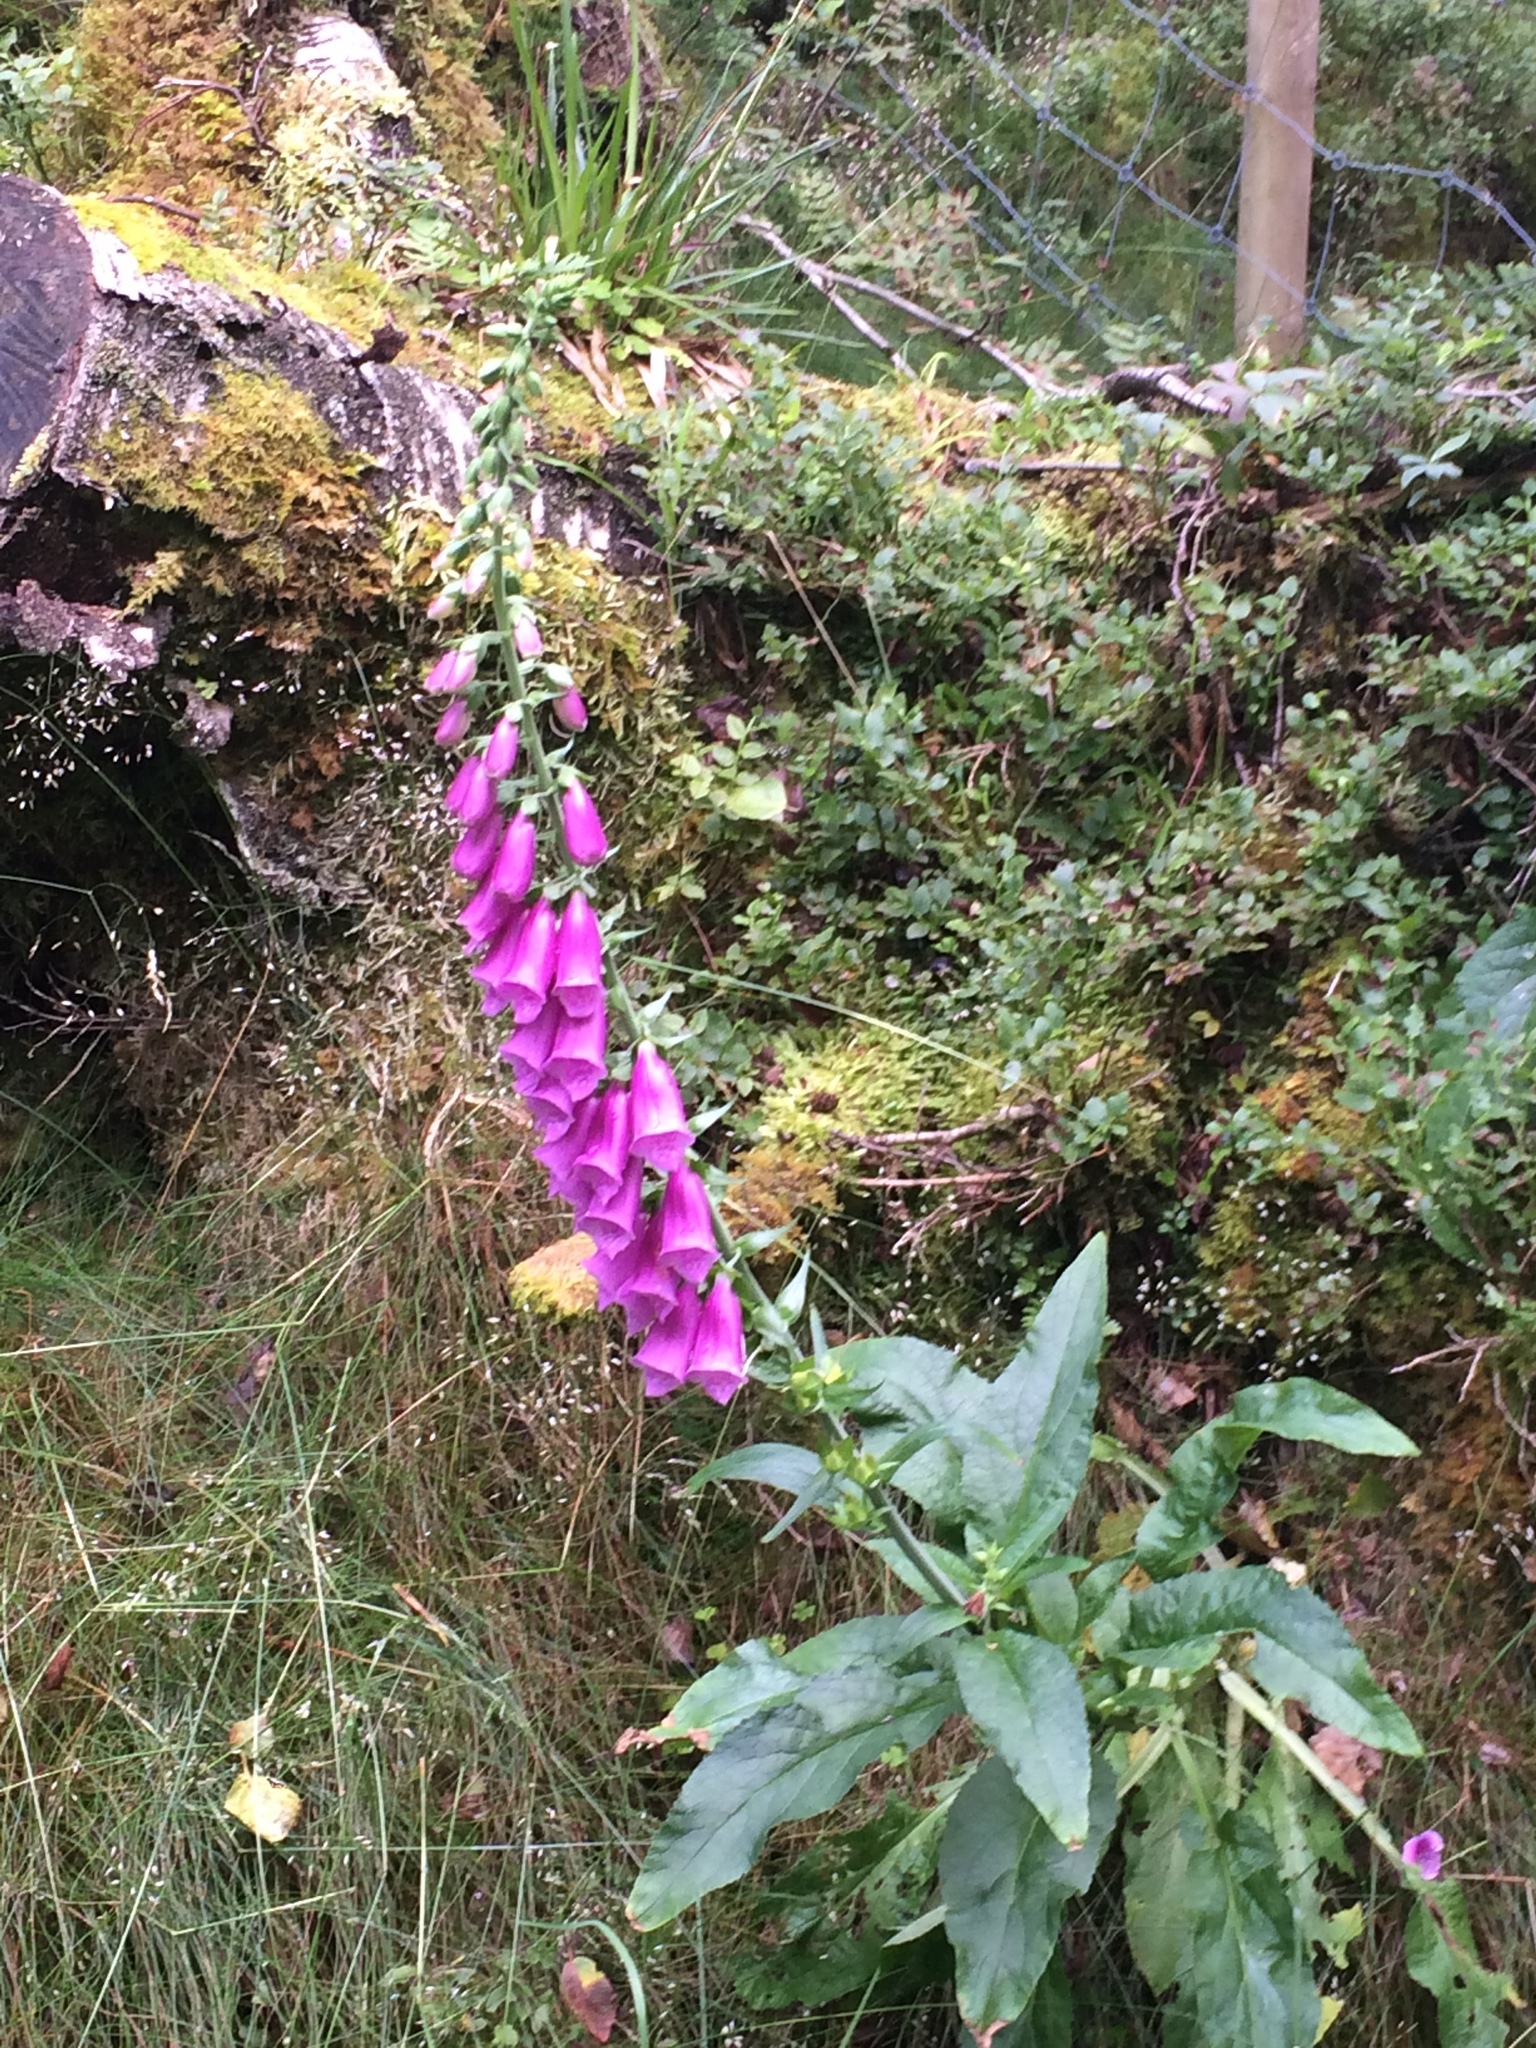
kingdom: Plantae
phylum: Tracheophyta
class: Magnoliopsida
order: Lamiales
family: Plantaginaceae
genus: Digitalis
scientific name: Digitalis purpurea
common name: Foxglove
